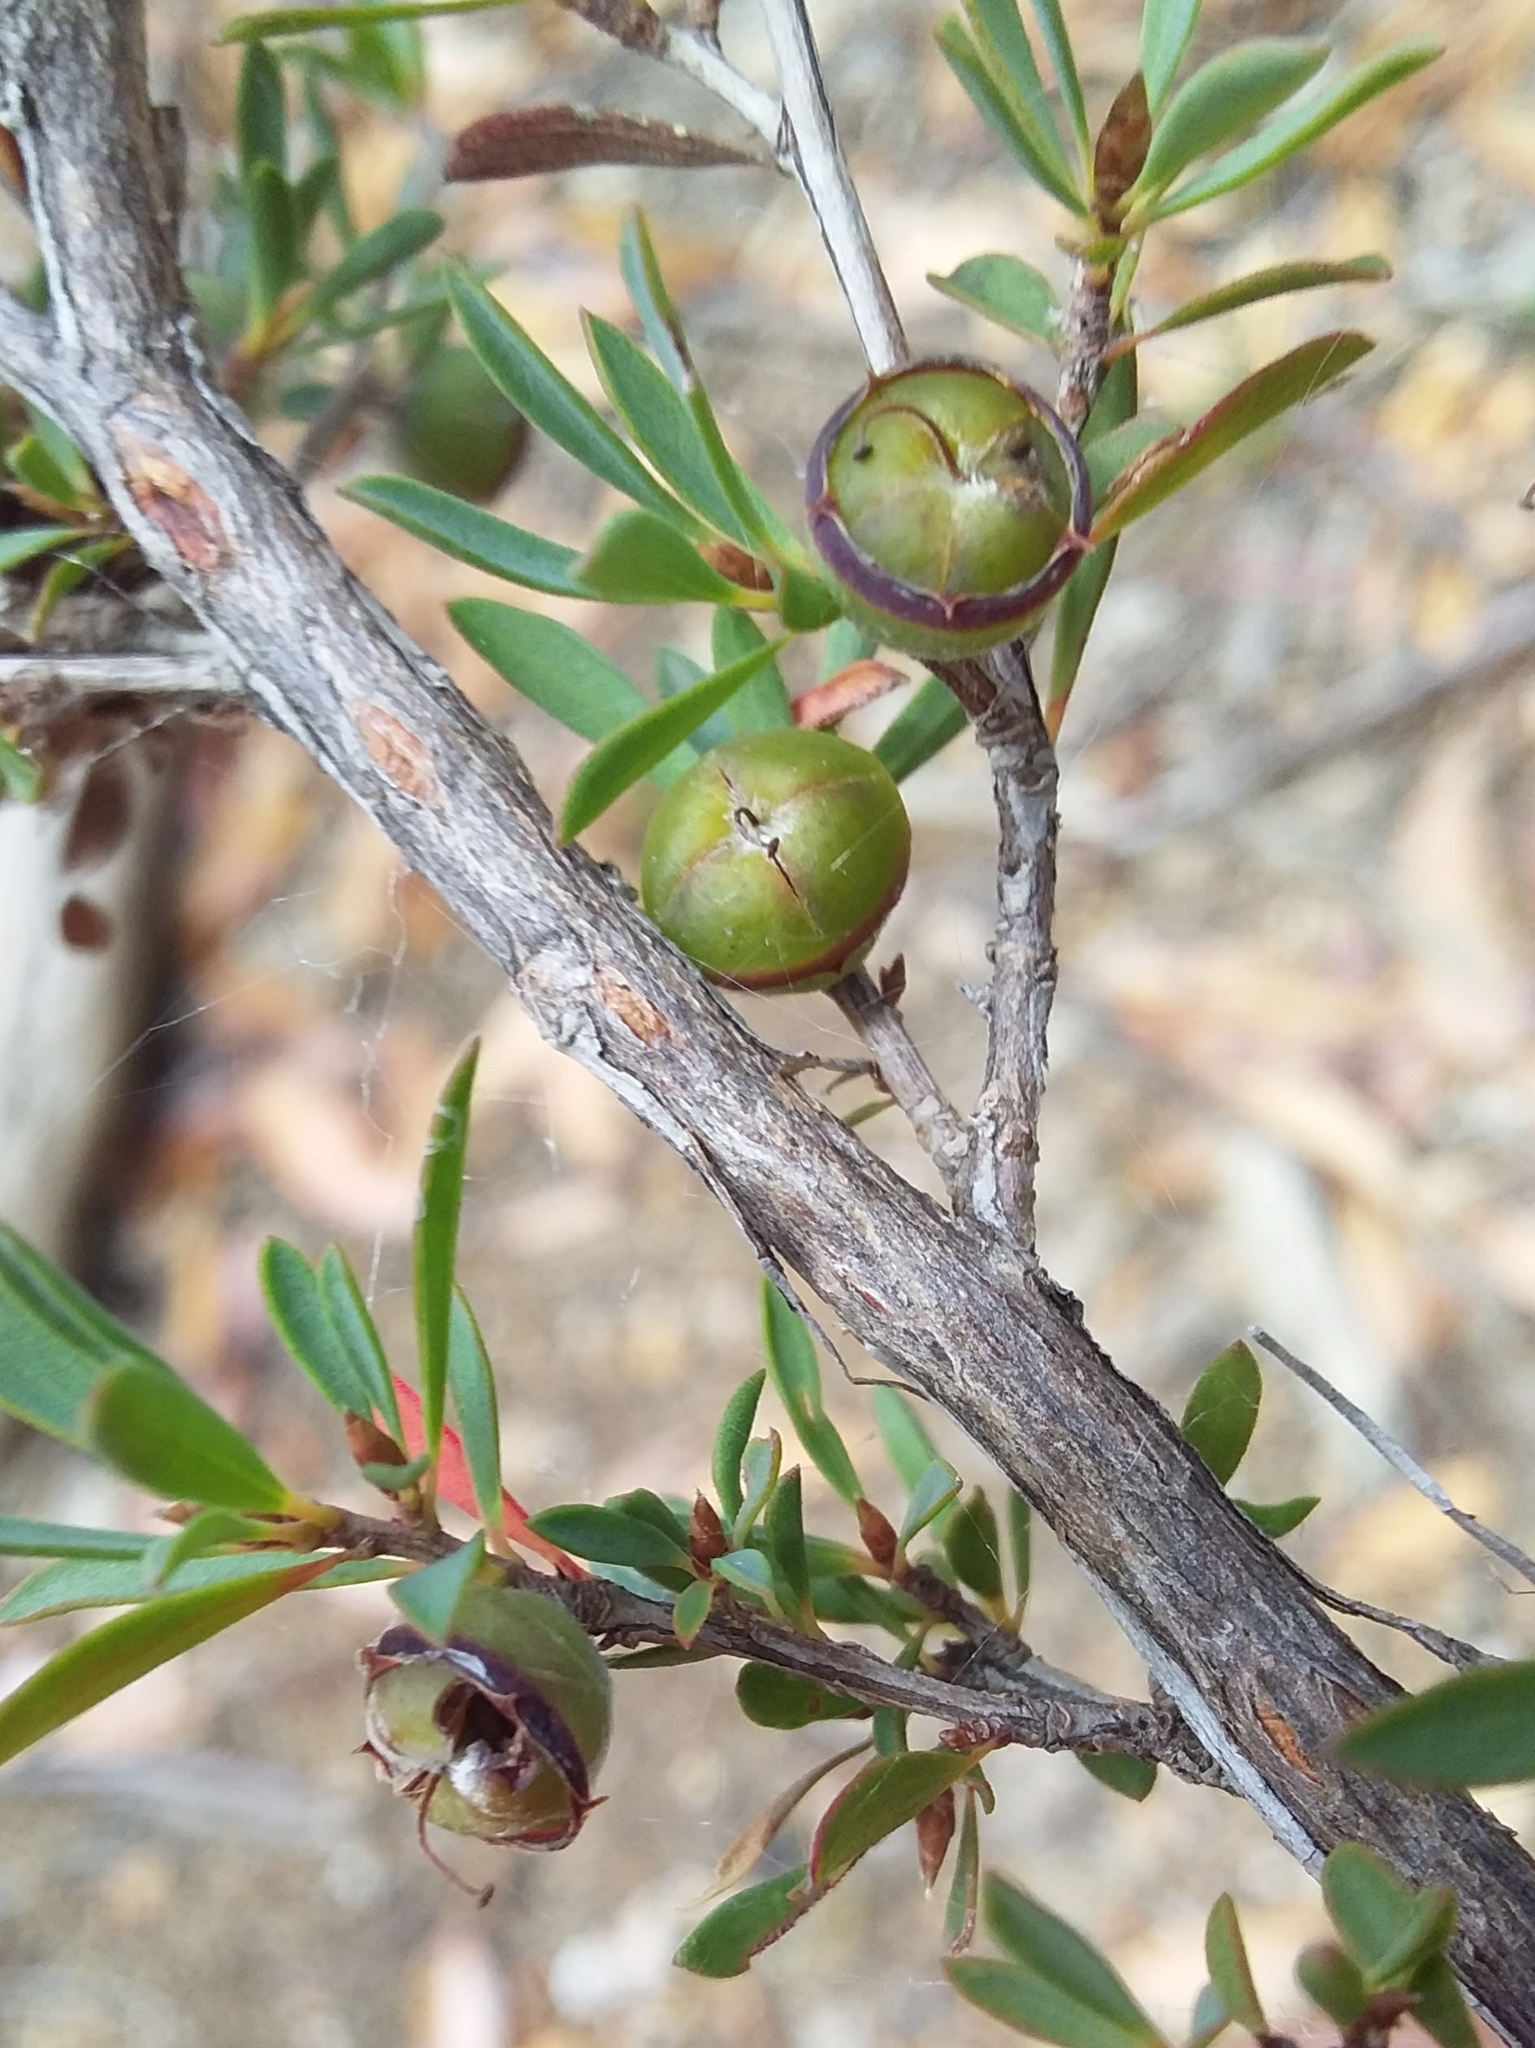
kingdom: Plantae
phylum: Tracheophyta
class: Magnoliopsida
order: Myrtales
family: Myrtaceae
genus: Leptospermum
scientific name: Leptospermum myrsinoides
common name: Heath teatree
